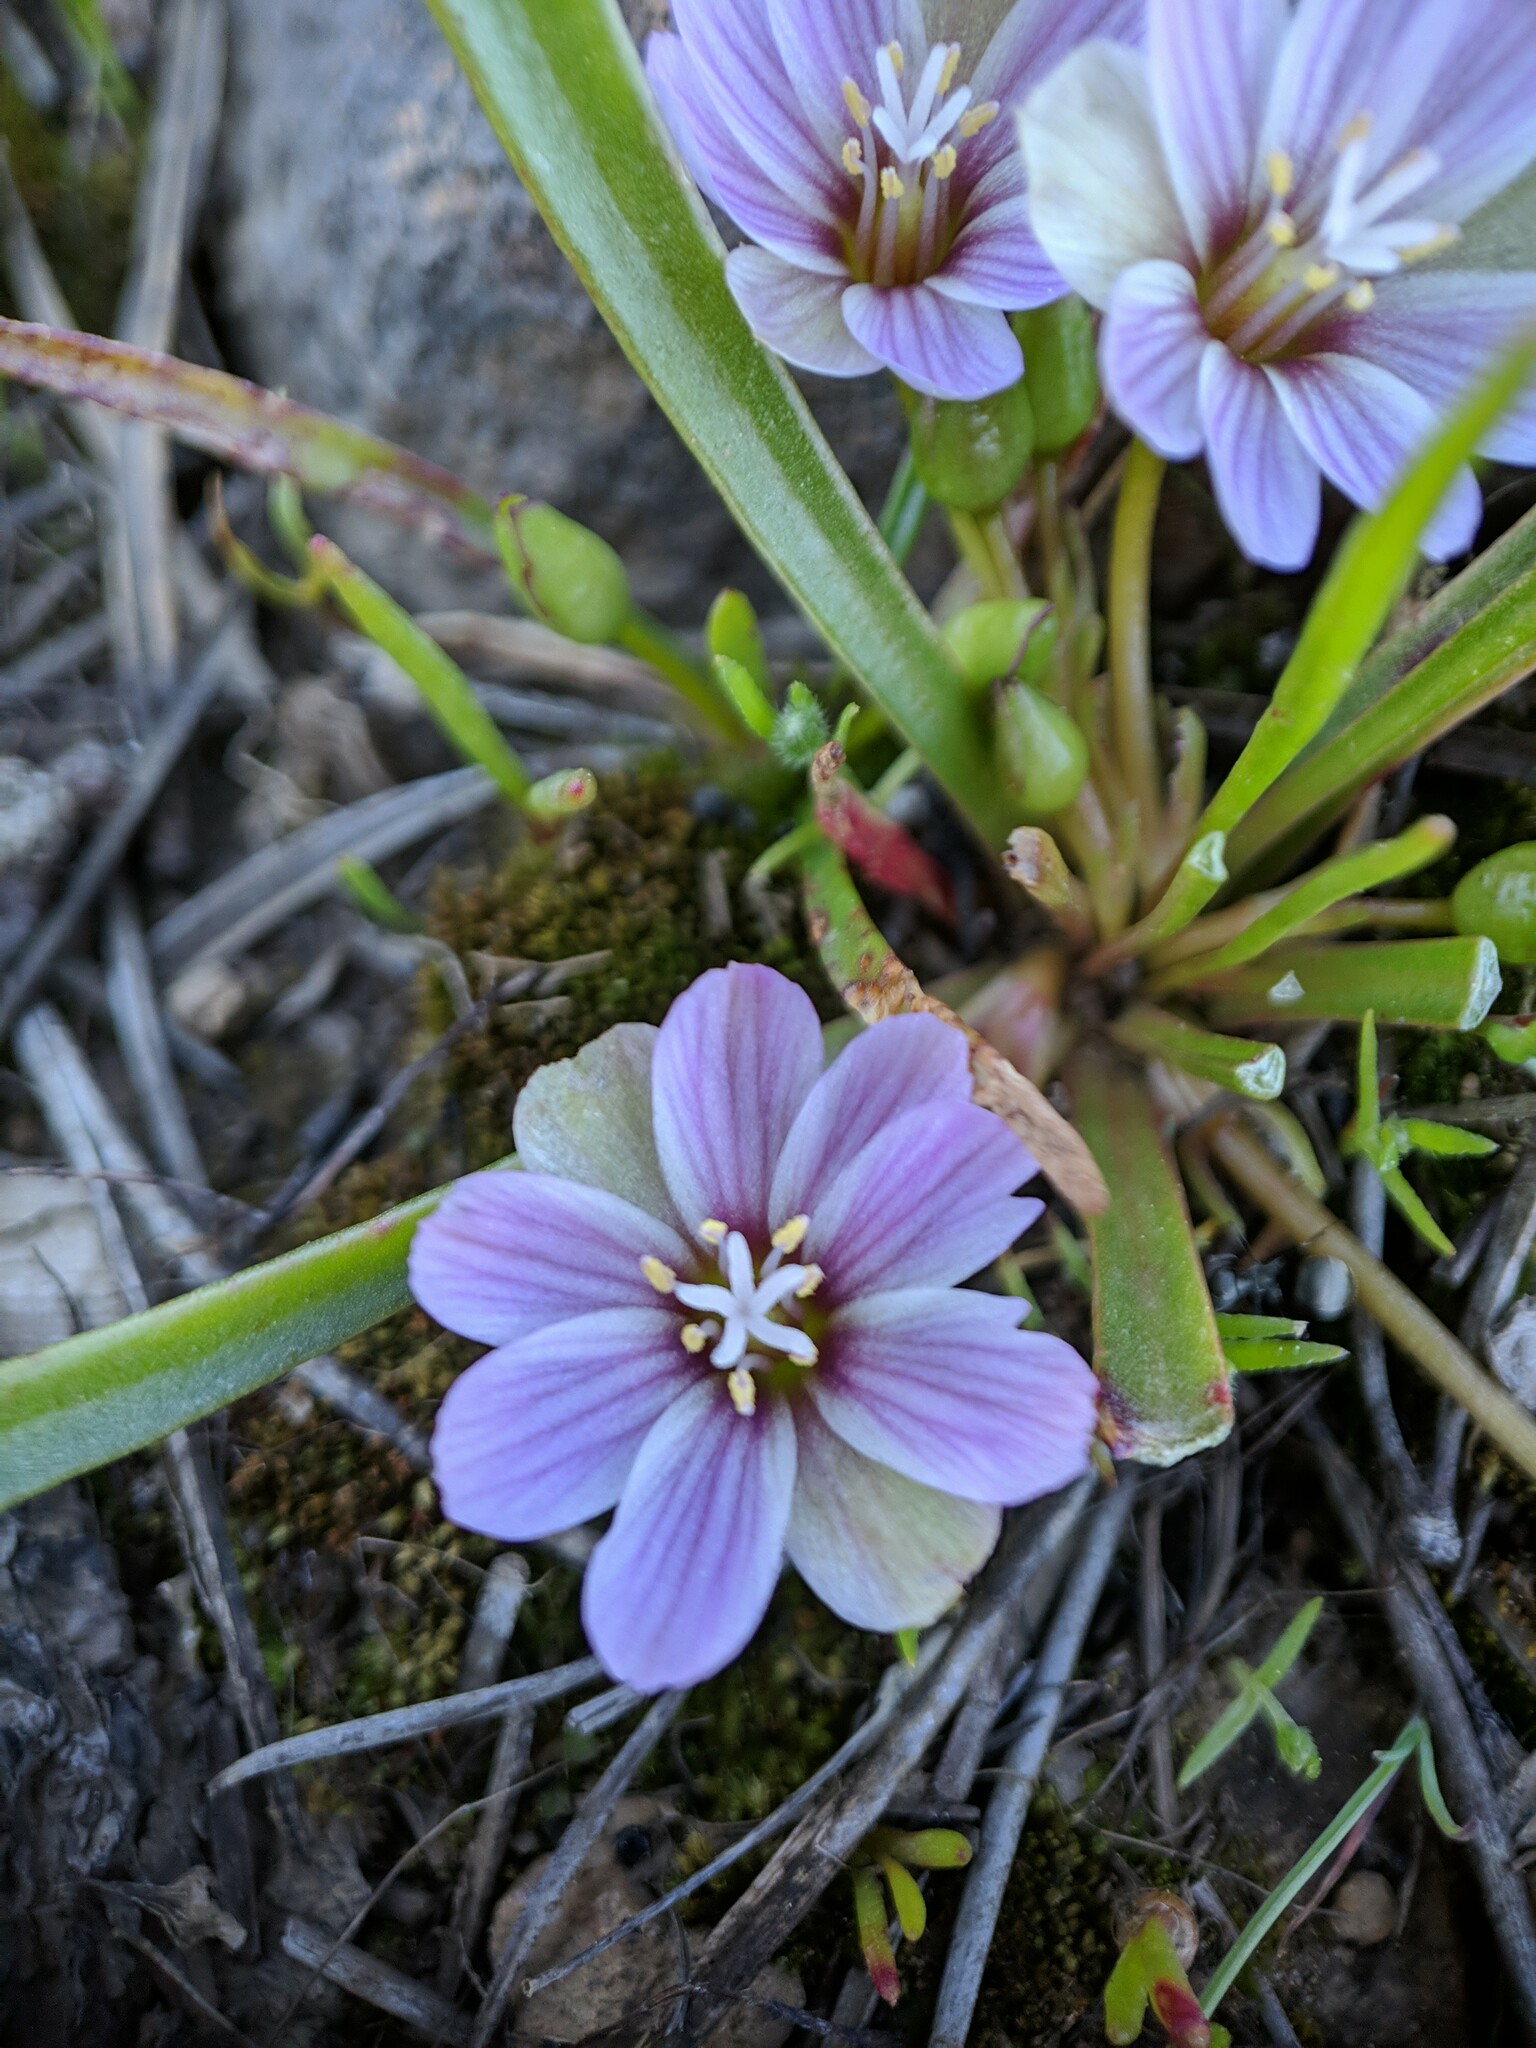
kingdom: Plantae
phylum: Tracheophyta
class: Magnoliopsida
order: Caryophyllales
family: Montiaceae
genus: Lewisia
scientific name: Lewisia pygmaea
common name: Alpine bitterroot
